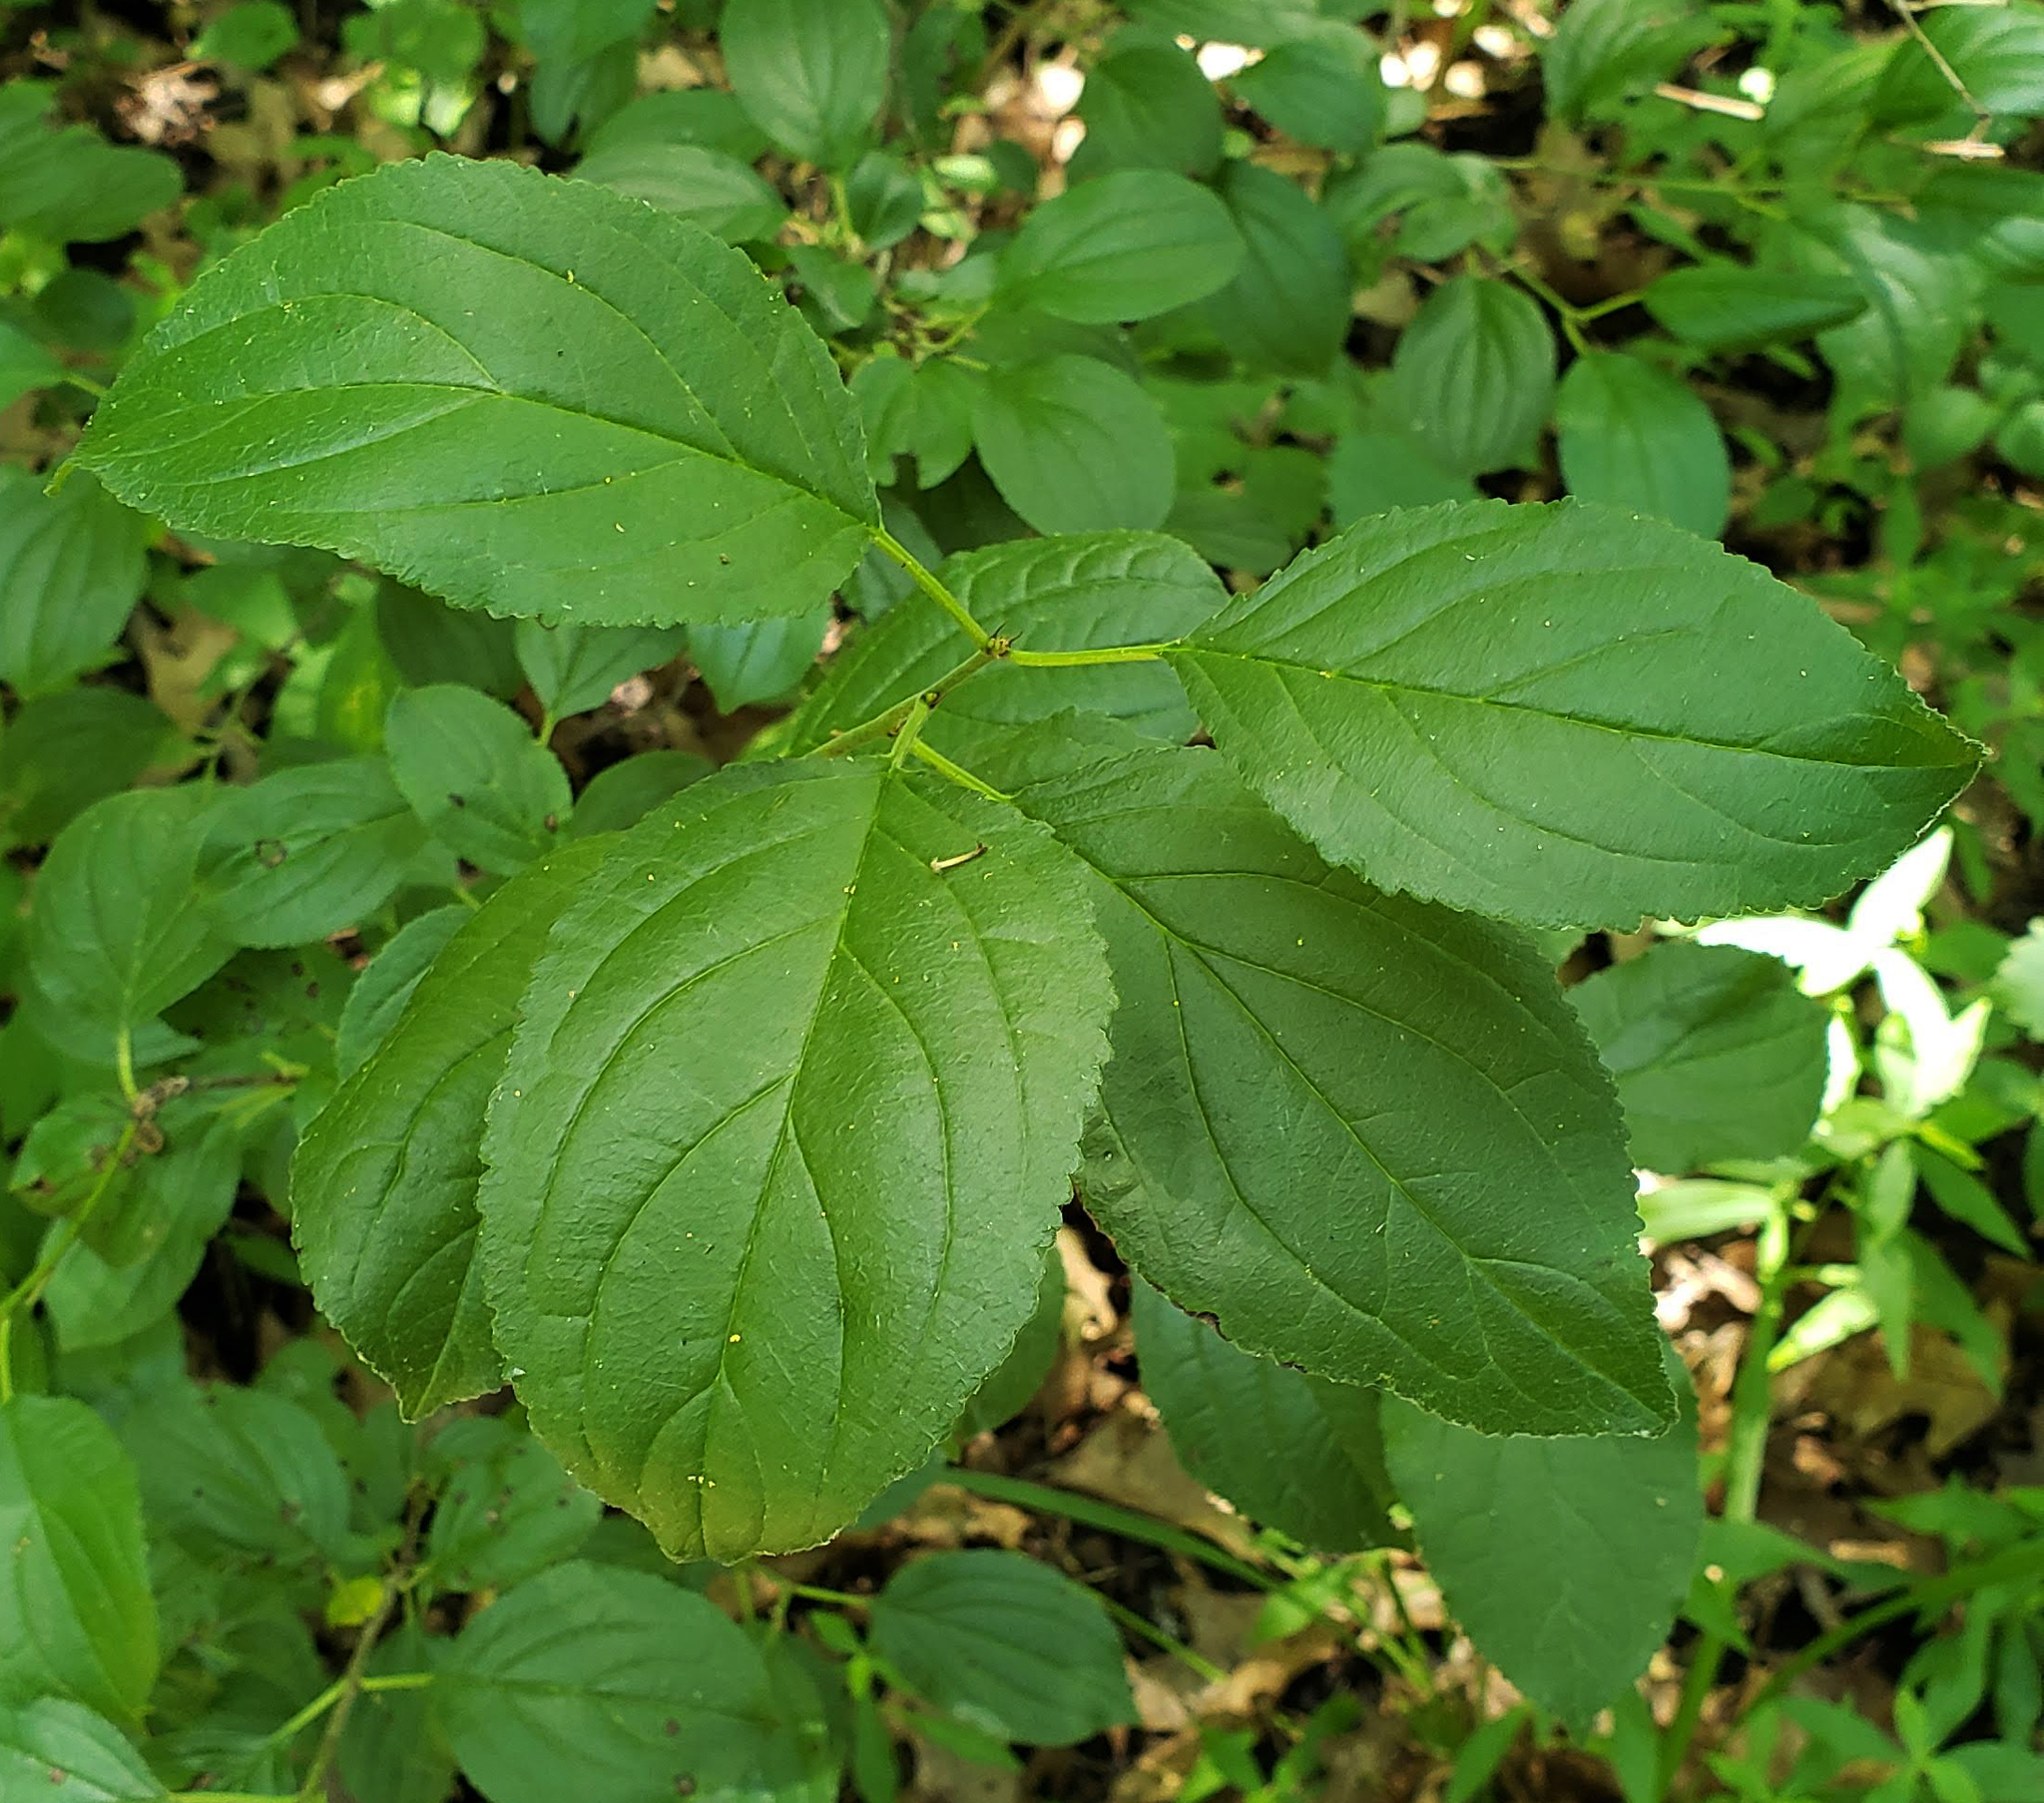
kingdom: Plantae
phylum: Tracheophyta
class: Magnoliopsida
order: Rosales
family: Rhamnaceae
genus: Rhamnus
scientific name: Rhamnus cathartica
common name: Common buckthorn
